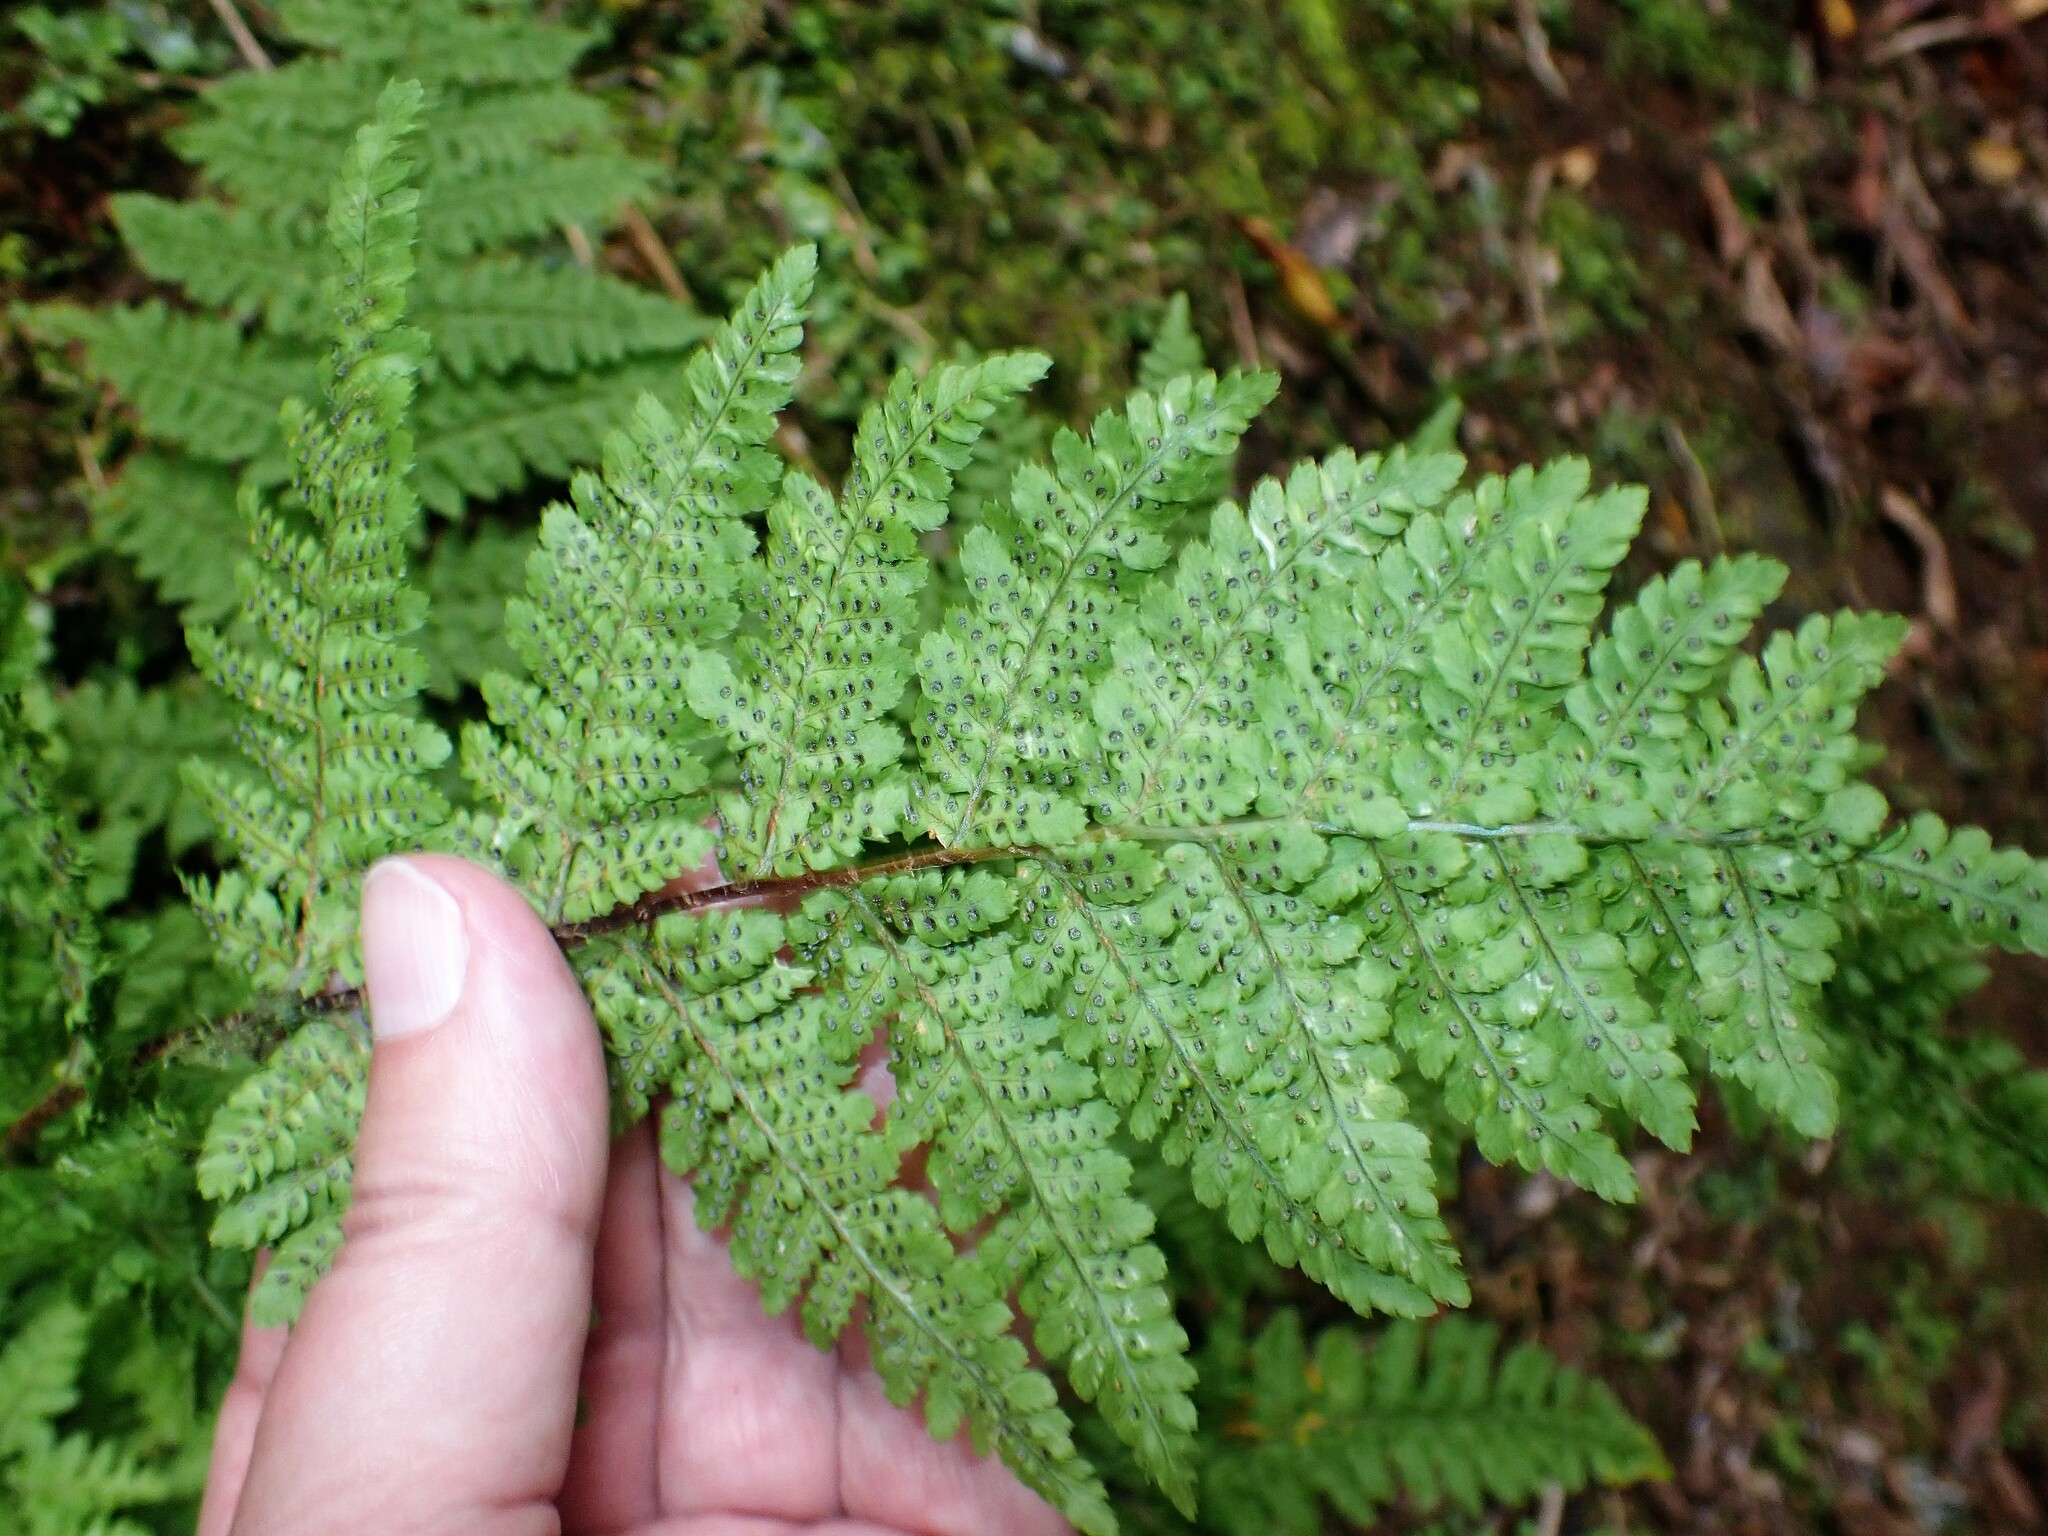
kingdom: Plantae
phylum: Tracheophyta
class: Polypodiopsida
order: Polypodiales
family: Dryopteridaceae
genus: Dryopteris
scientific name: Dryopteris intermedia
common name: Evergreen wood fern
